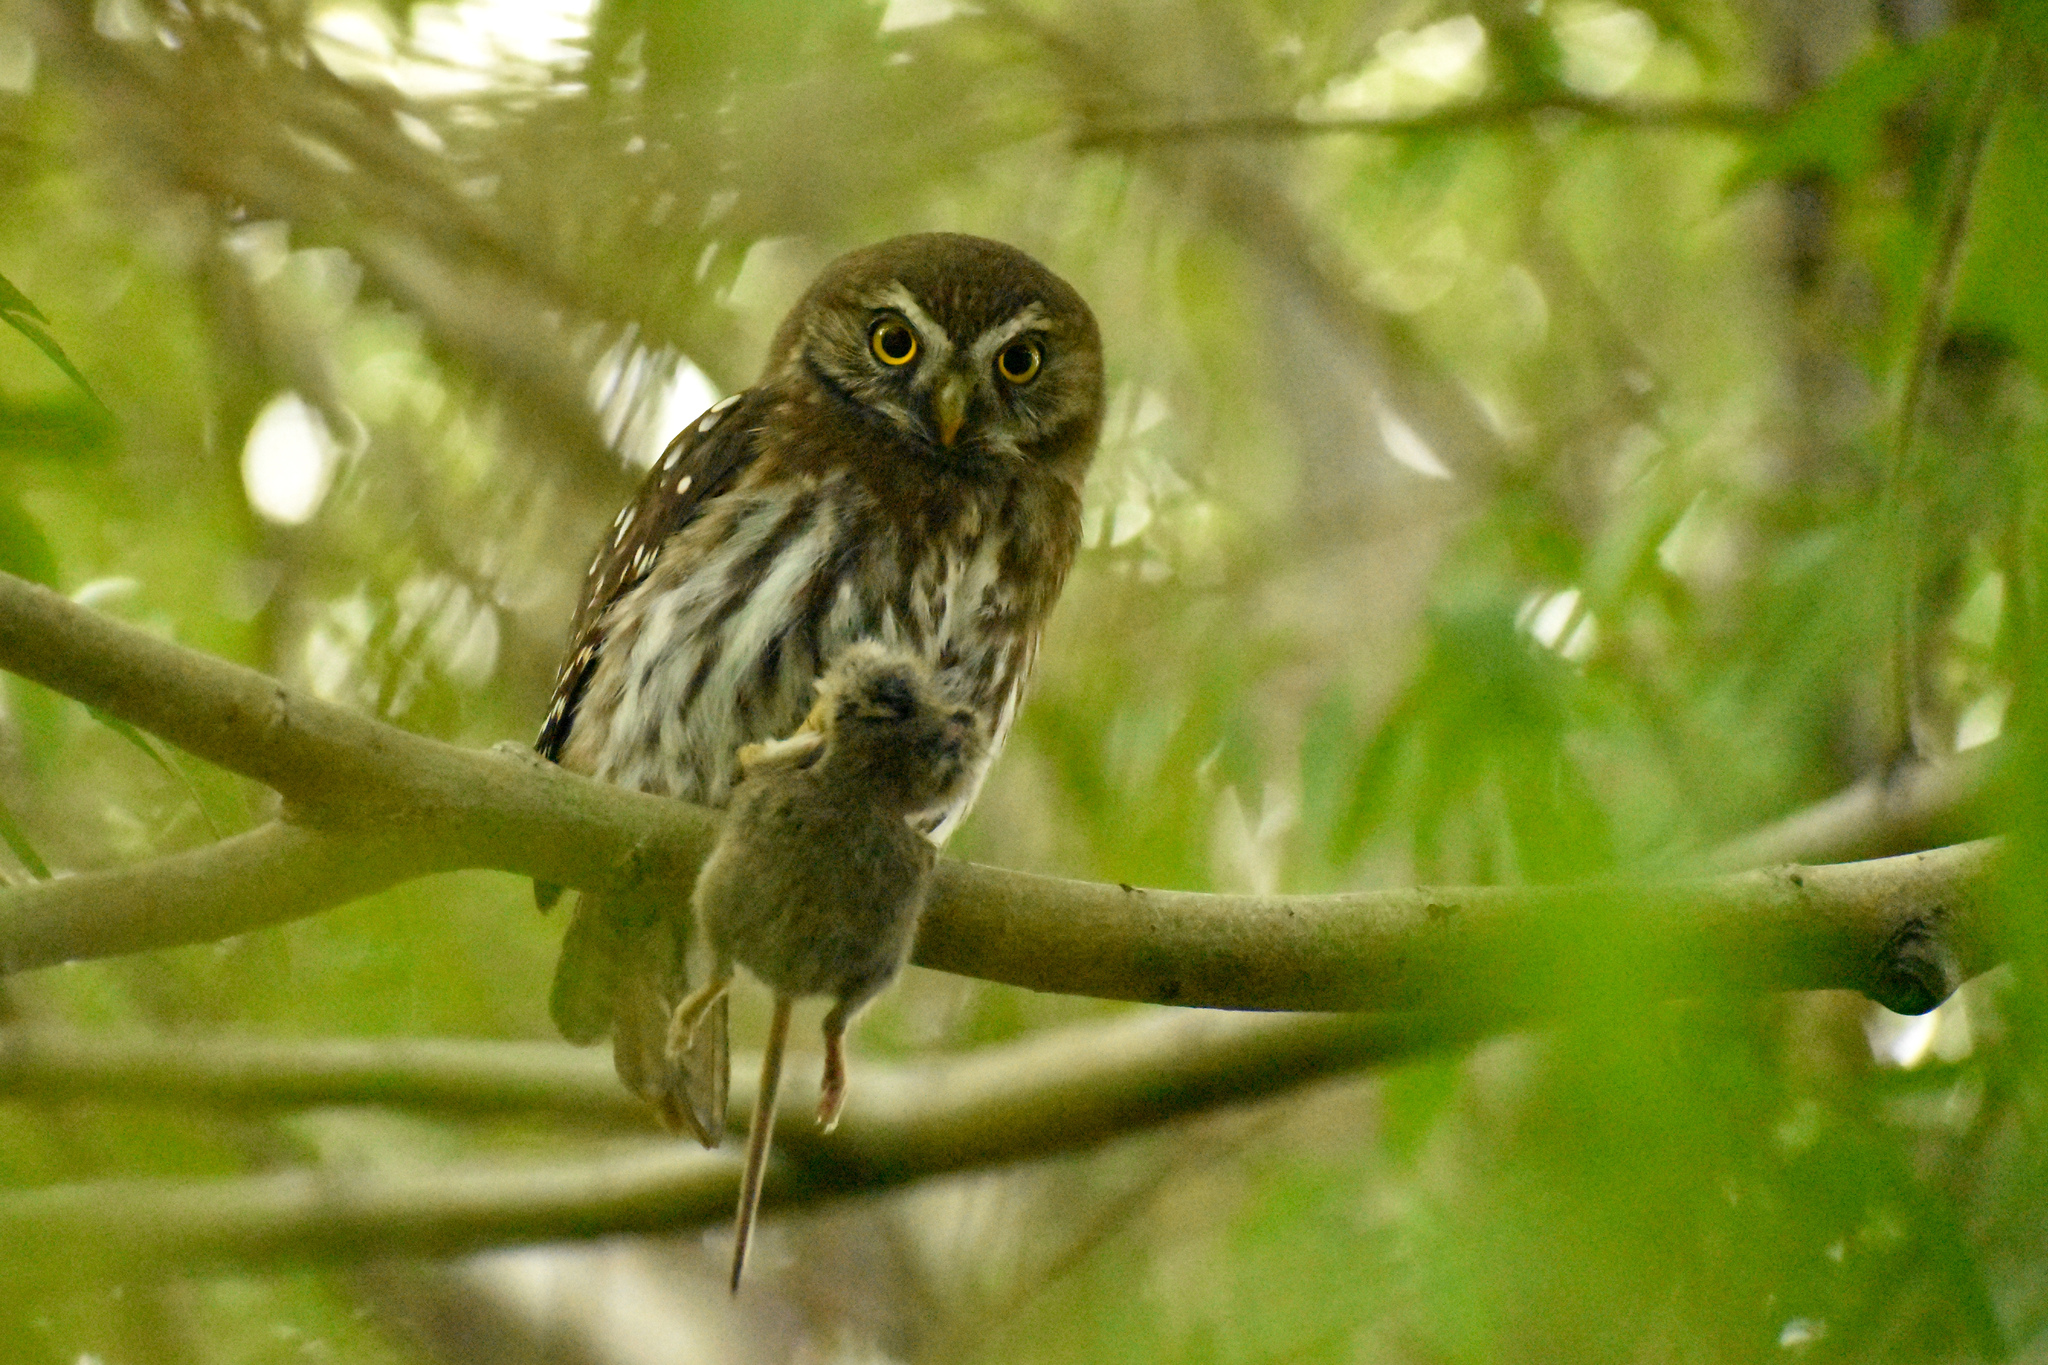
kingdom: Animalia
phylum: Chordata
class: Aves
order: Strigiformes
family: Strigidae
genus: Glaucidium
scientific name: Glaucidium nana
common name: Austral pygmy-owl
